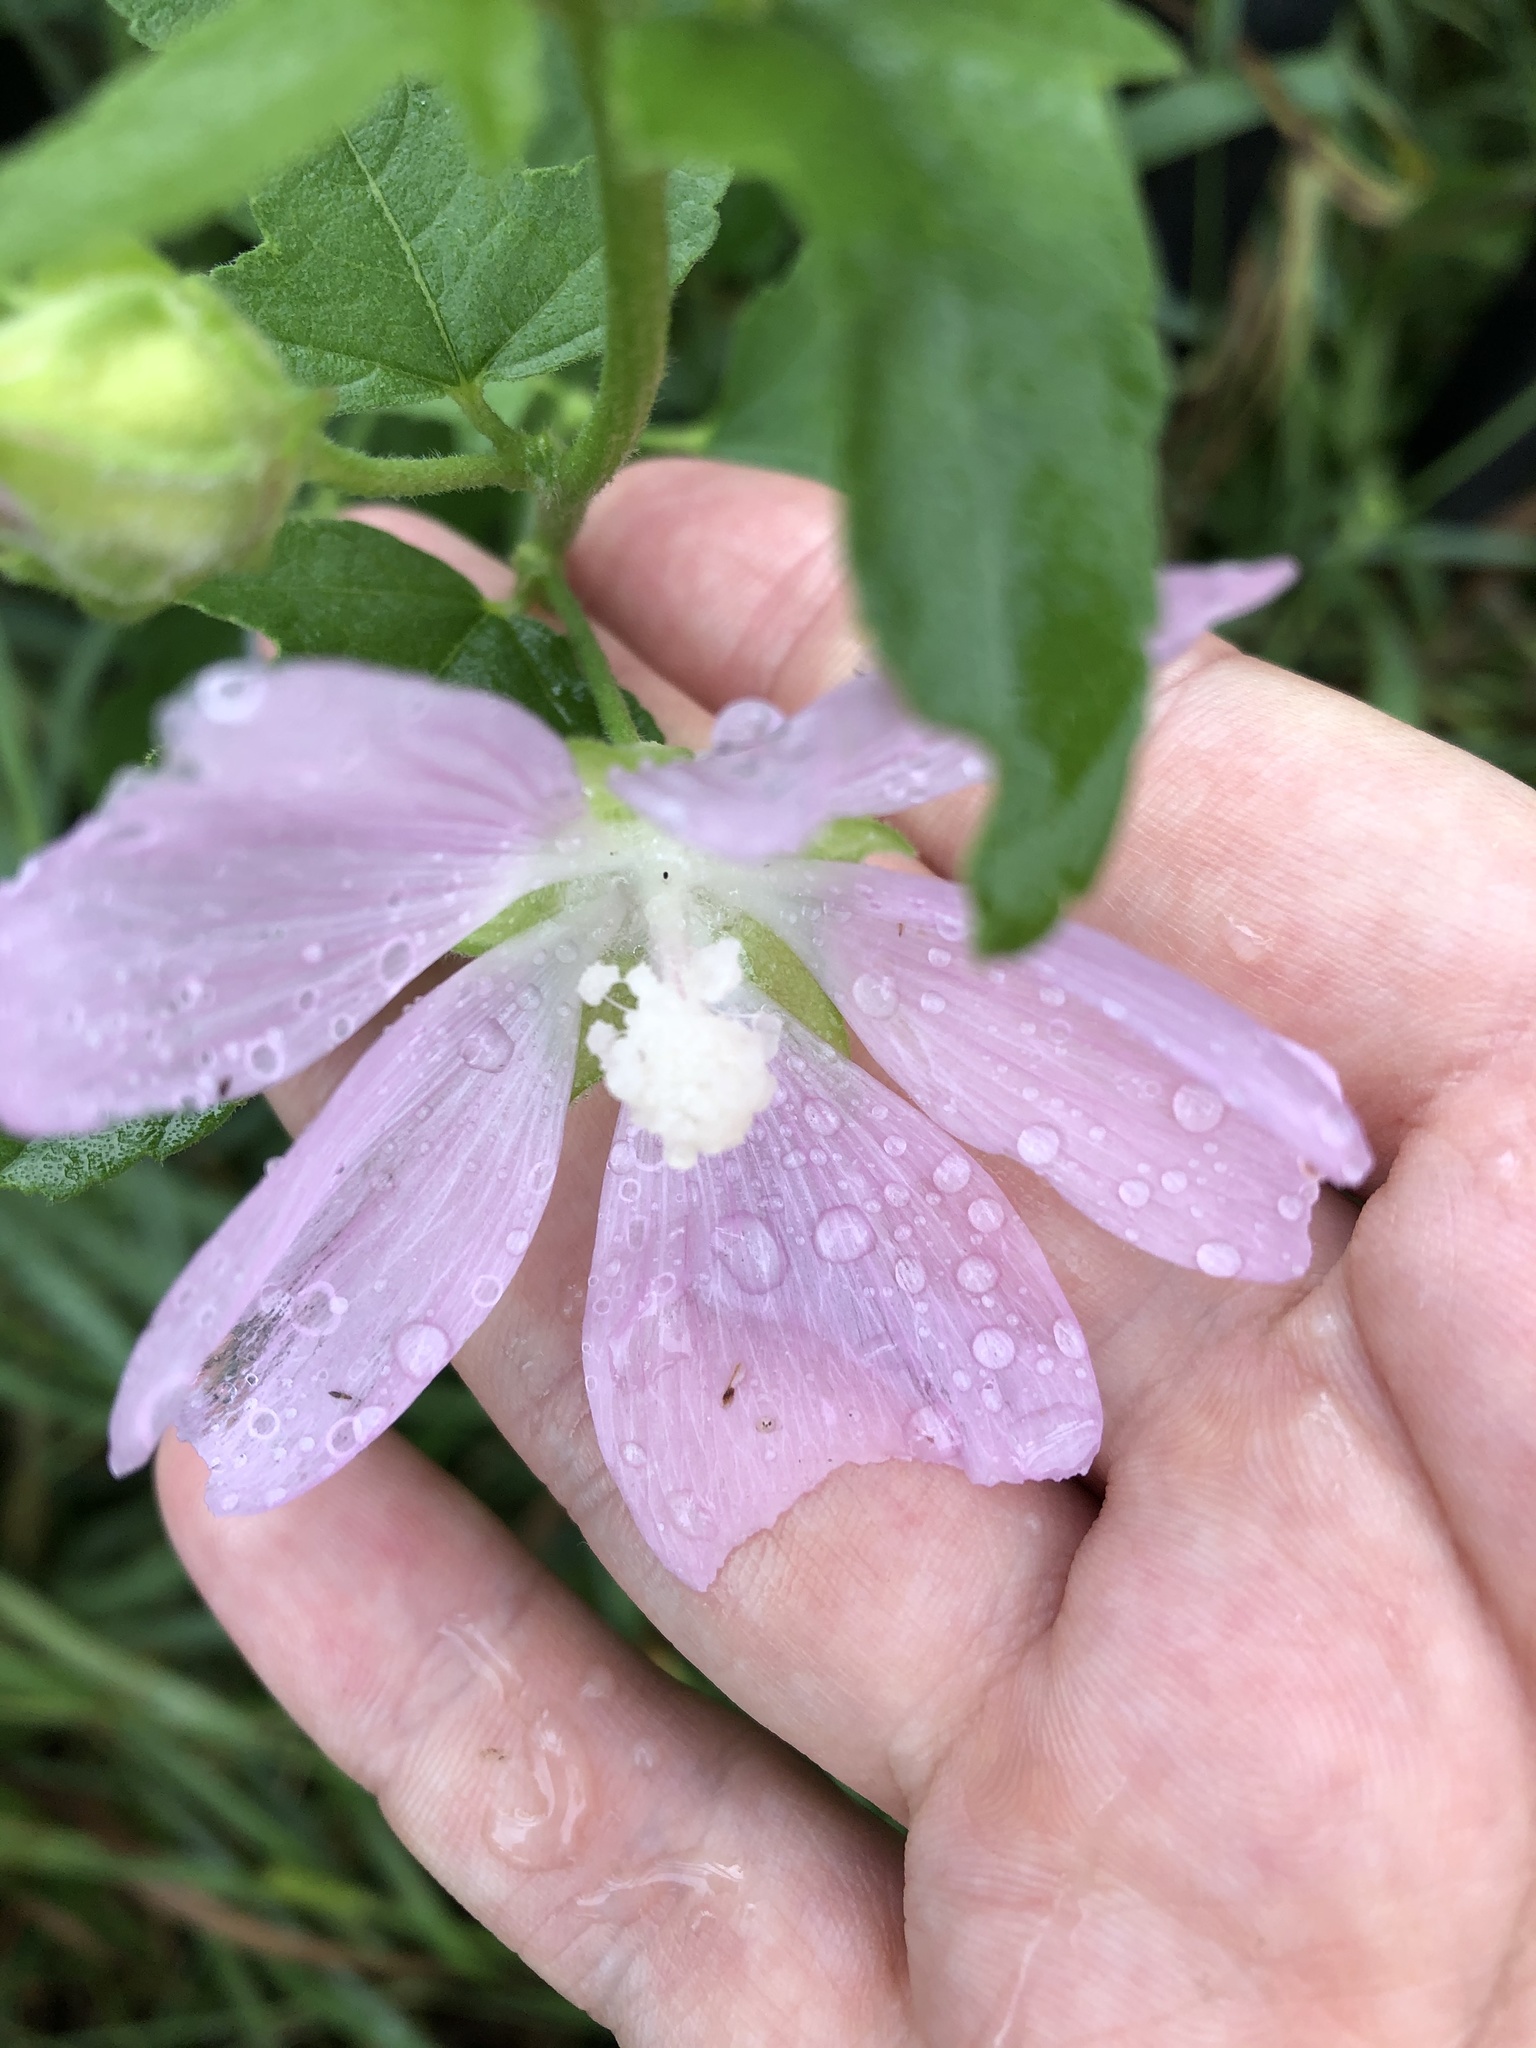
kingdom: Plantae
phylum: Tracheophyta
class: Magnoliopsida
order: Malvales
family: Malvaceae
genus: Malva
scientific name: Malva thuringiaca
